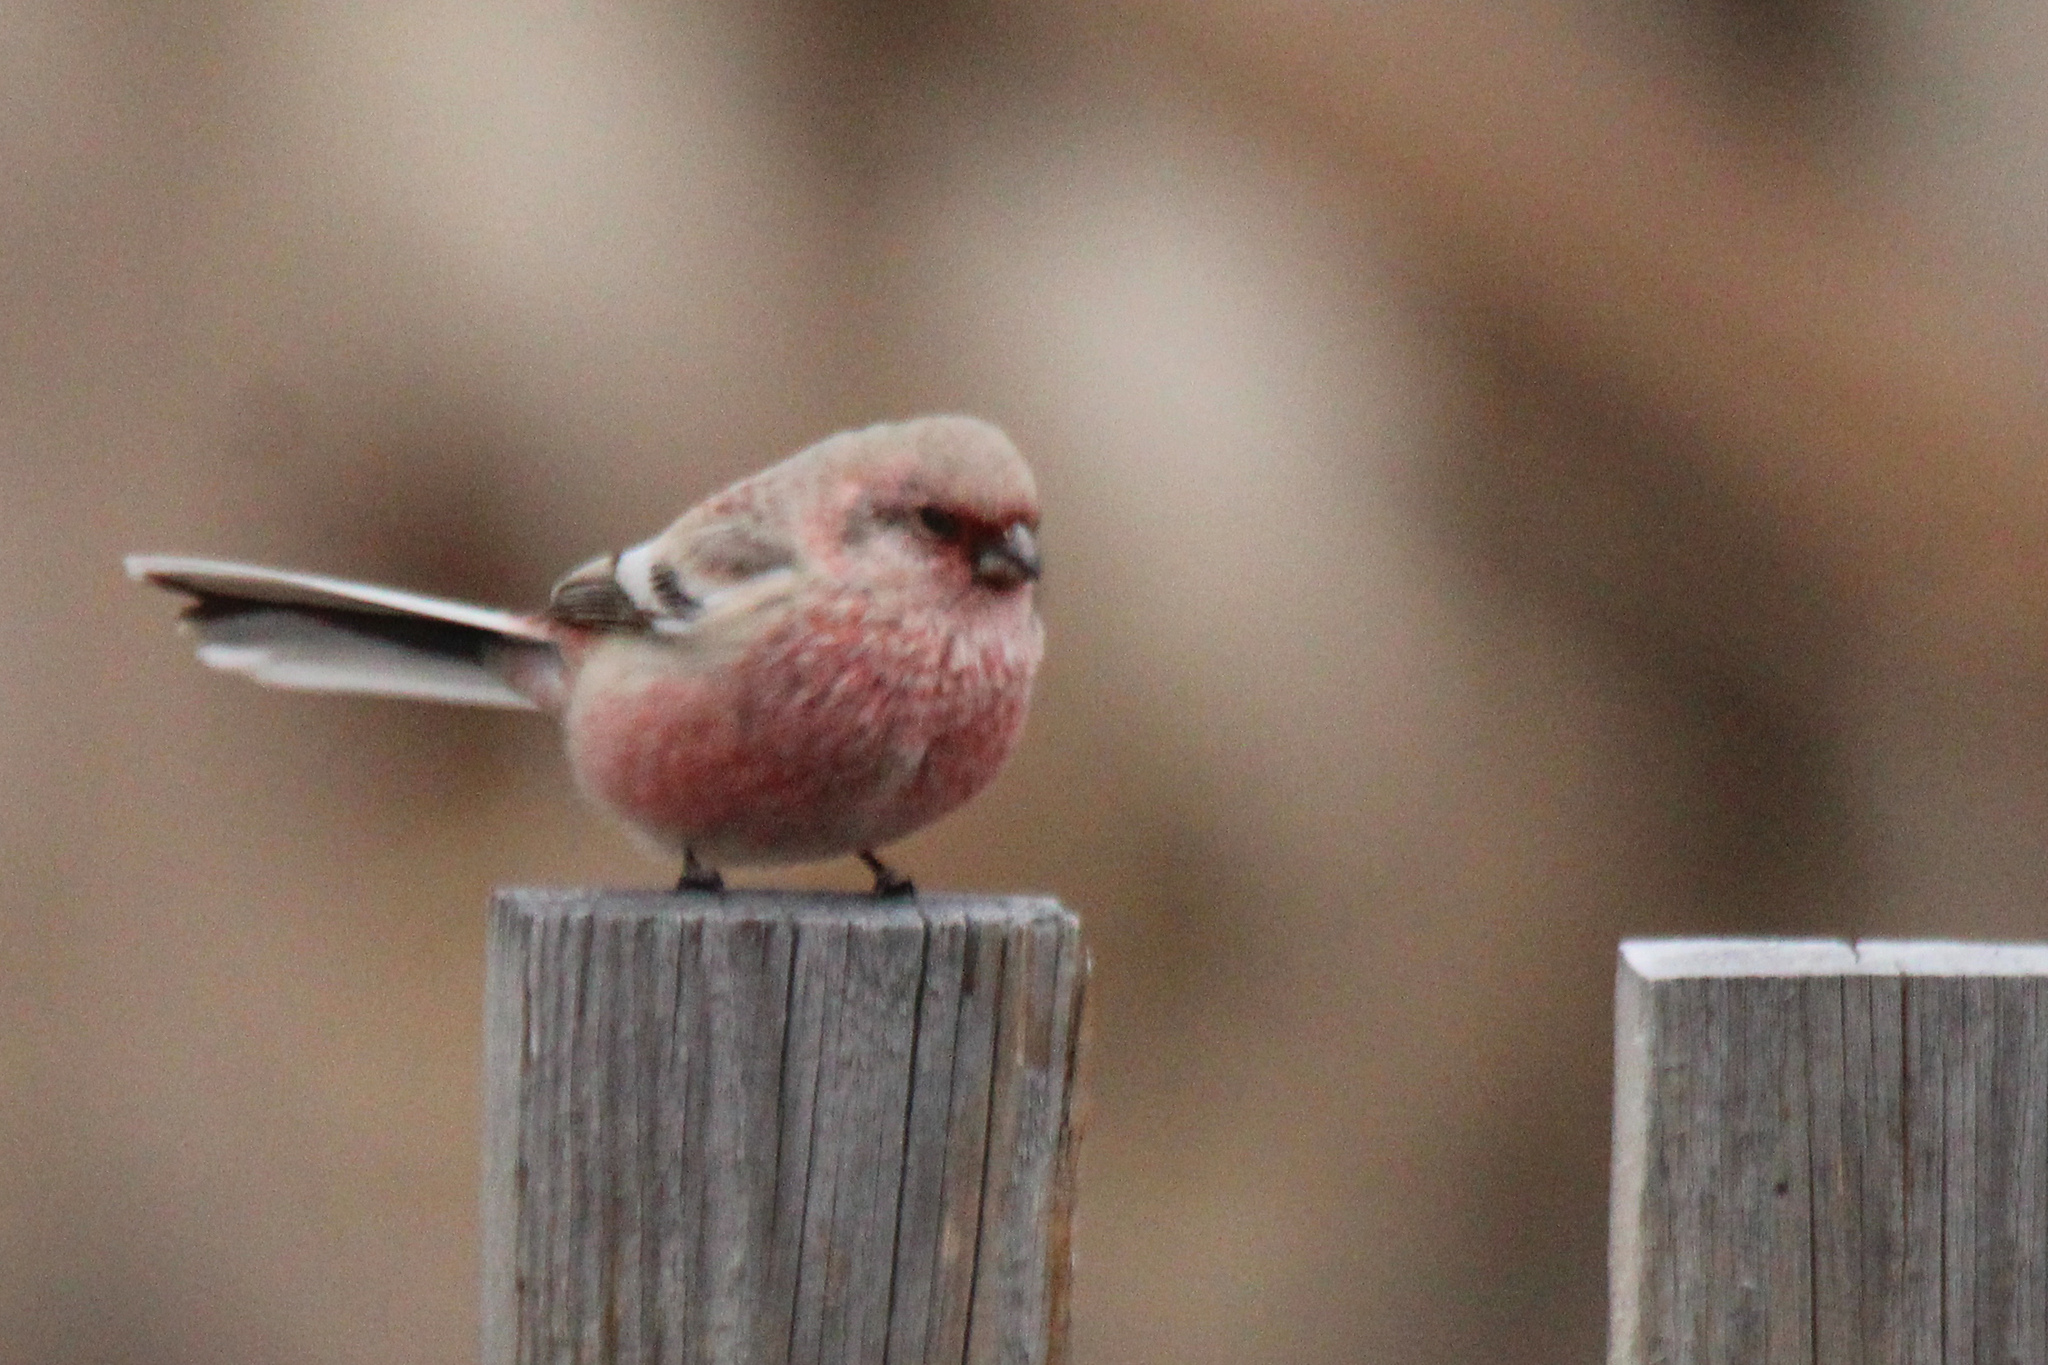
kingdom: Animalia
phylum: Chordata
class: Aves
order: Passeriformes
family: Fringillidae
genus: Carpodacus
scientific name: Carpodacus sibiricus
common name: Long-tailed rosefinch
